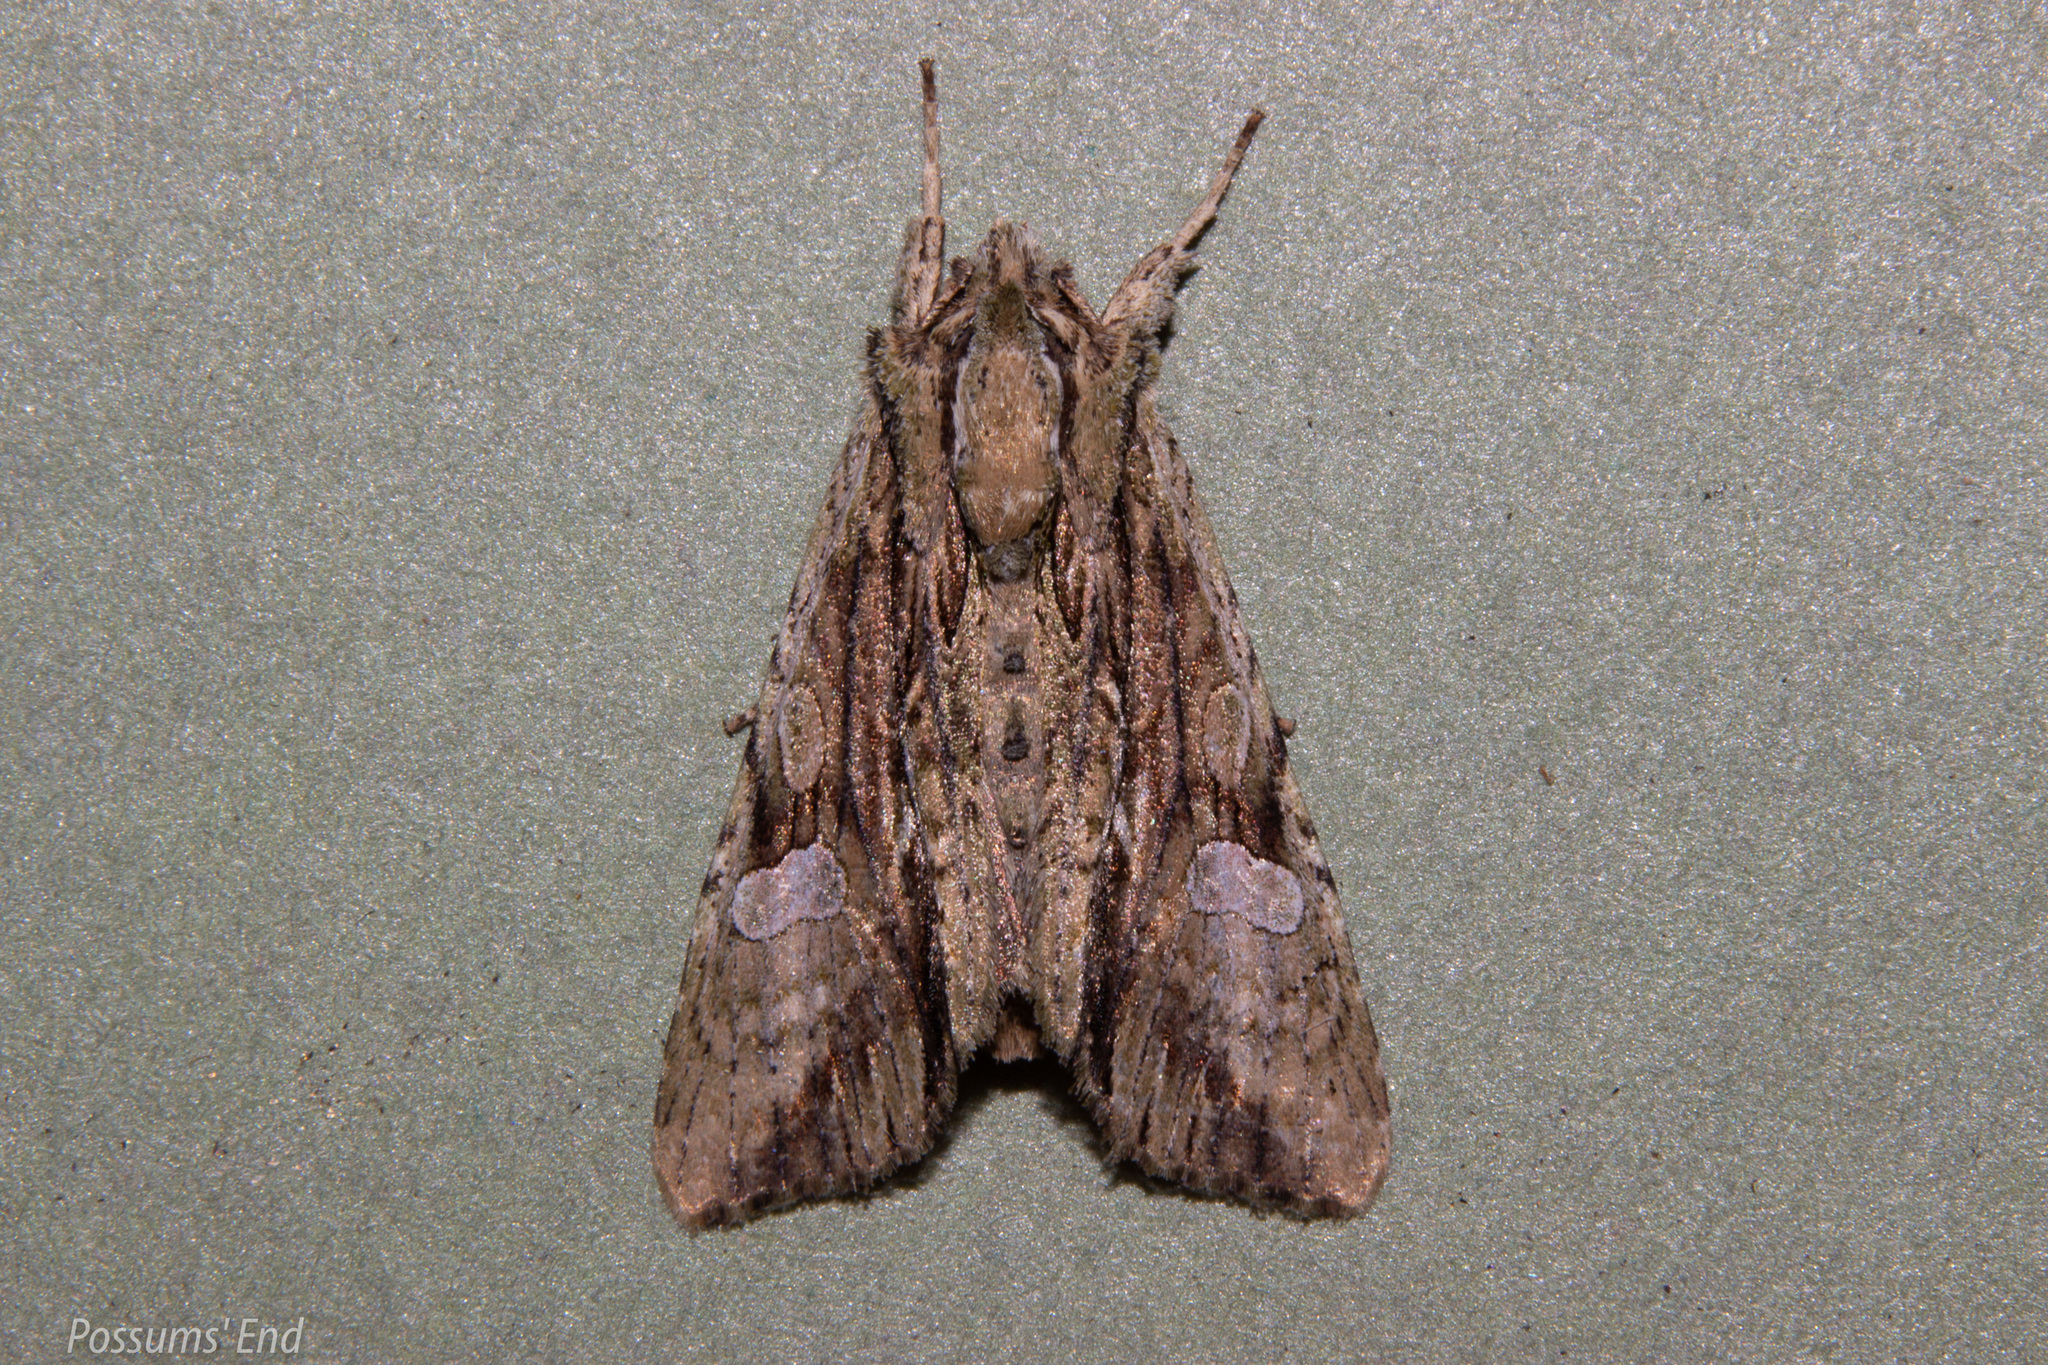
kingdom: Animalia
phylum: Arthropoda
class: Insecta
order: Lepidoptera
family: Noctuidae
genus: Meterana
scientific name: Meterana decorata
